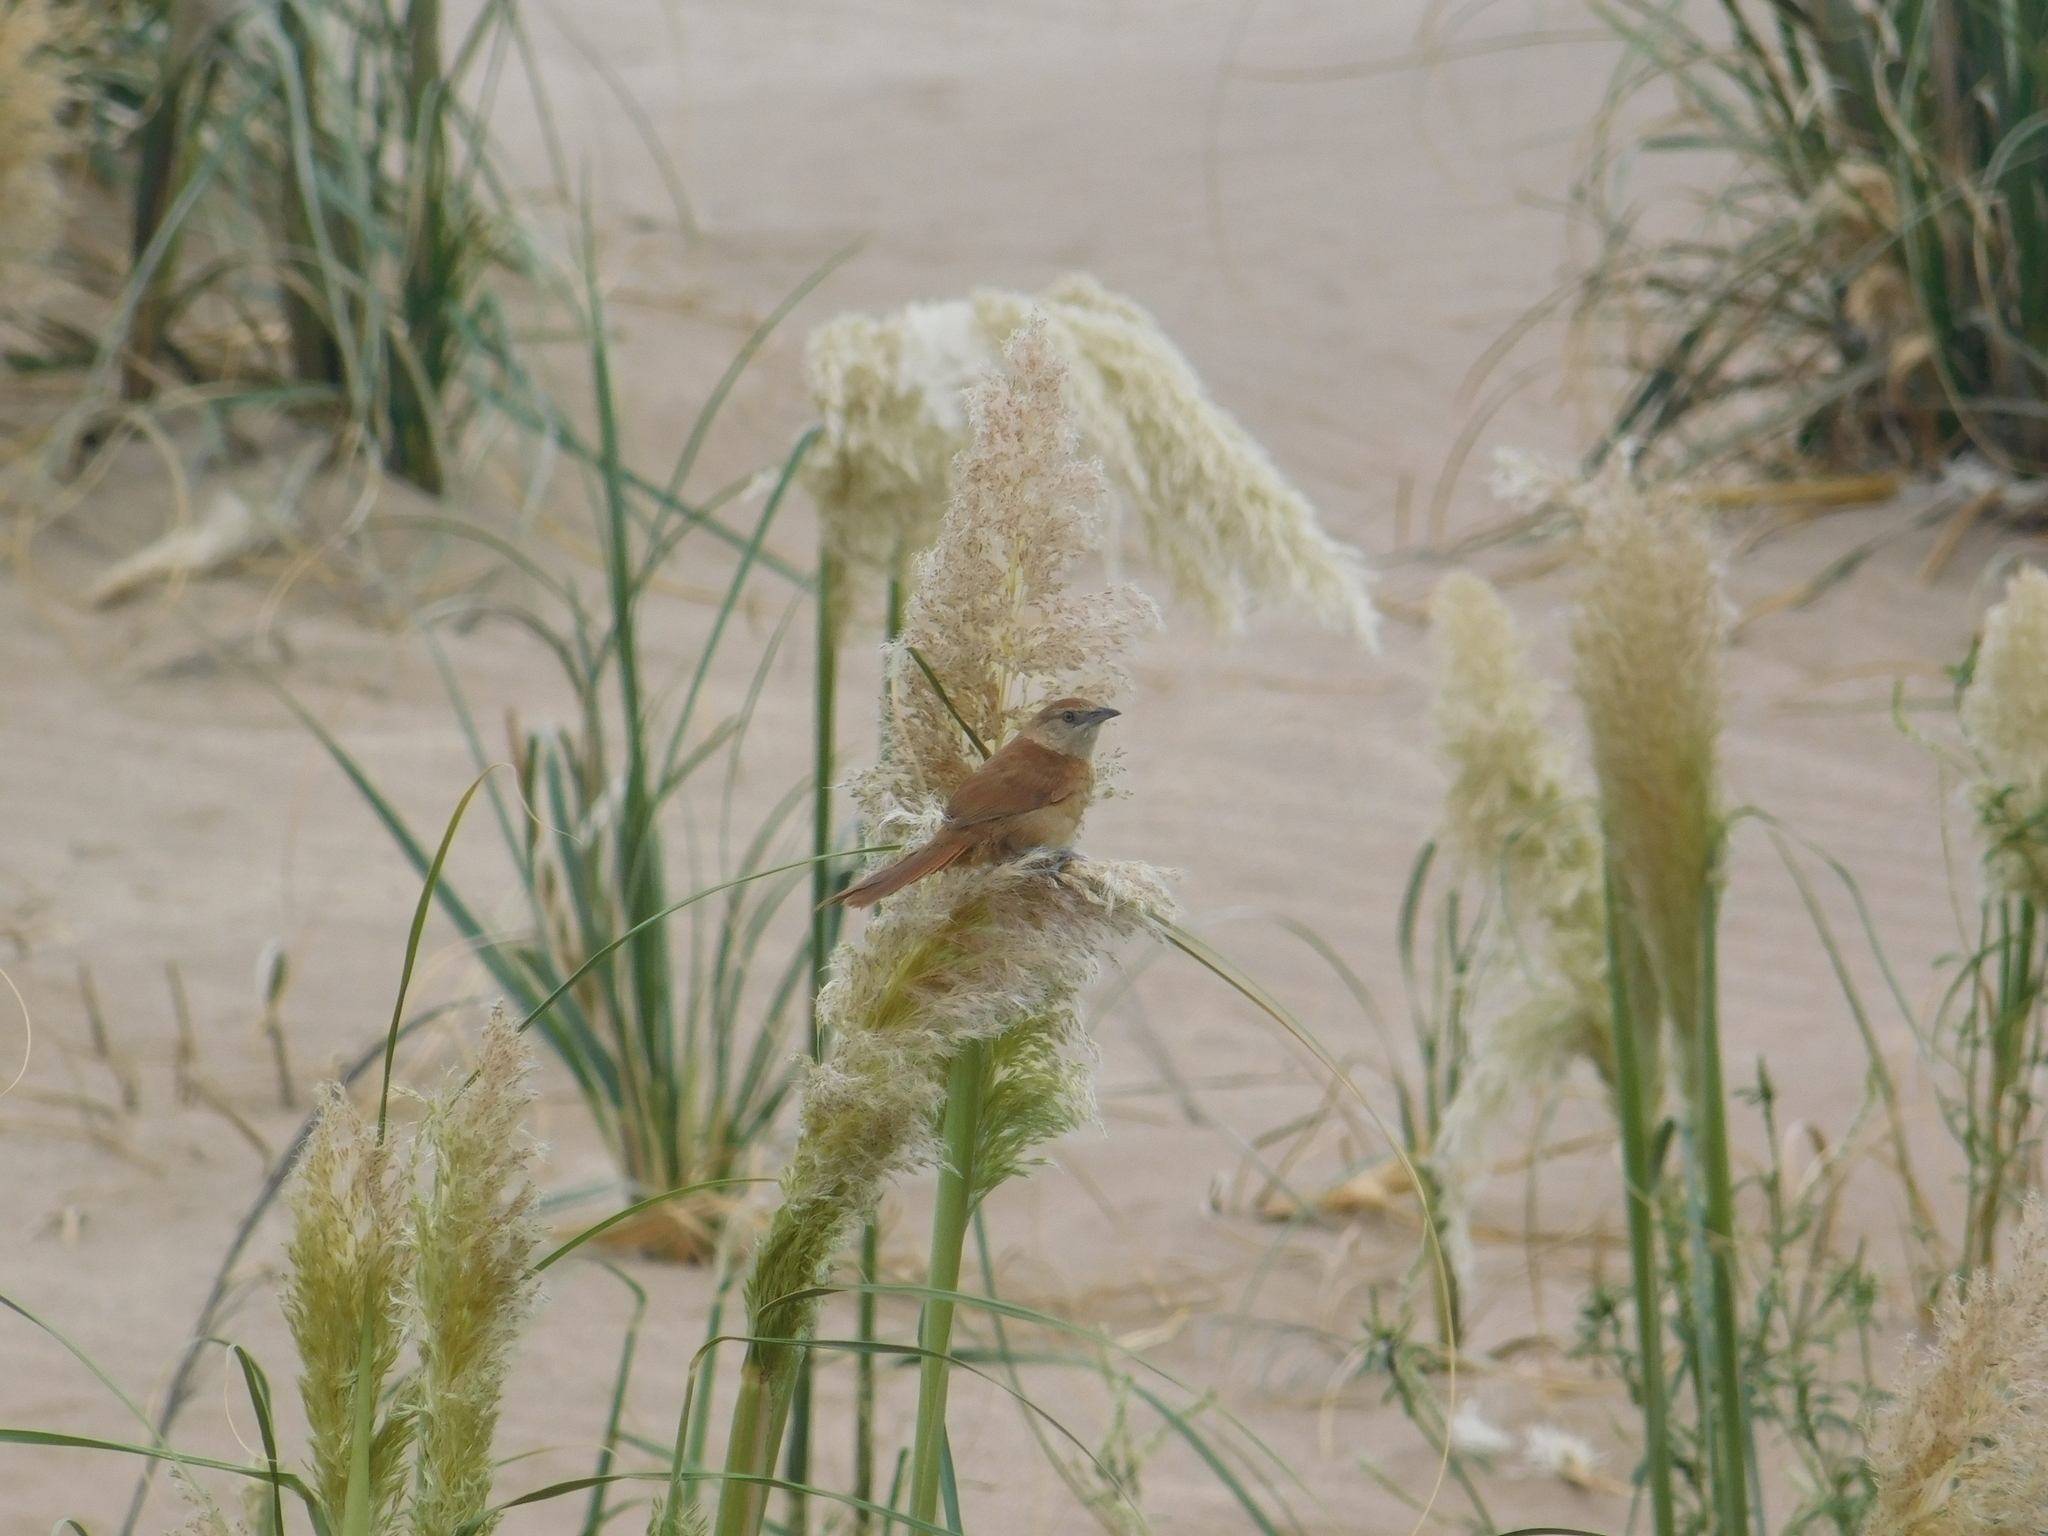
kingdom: Animalia
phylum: Chordata
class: Aves
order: Passeriformes
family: Furnariidae
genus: Phacellodomus
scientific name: Phacellodomus striaticollis
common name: Freckle-breasted thornbird
